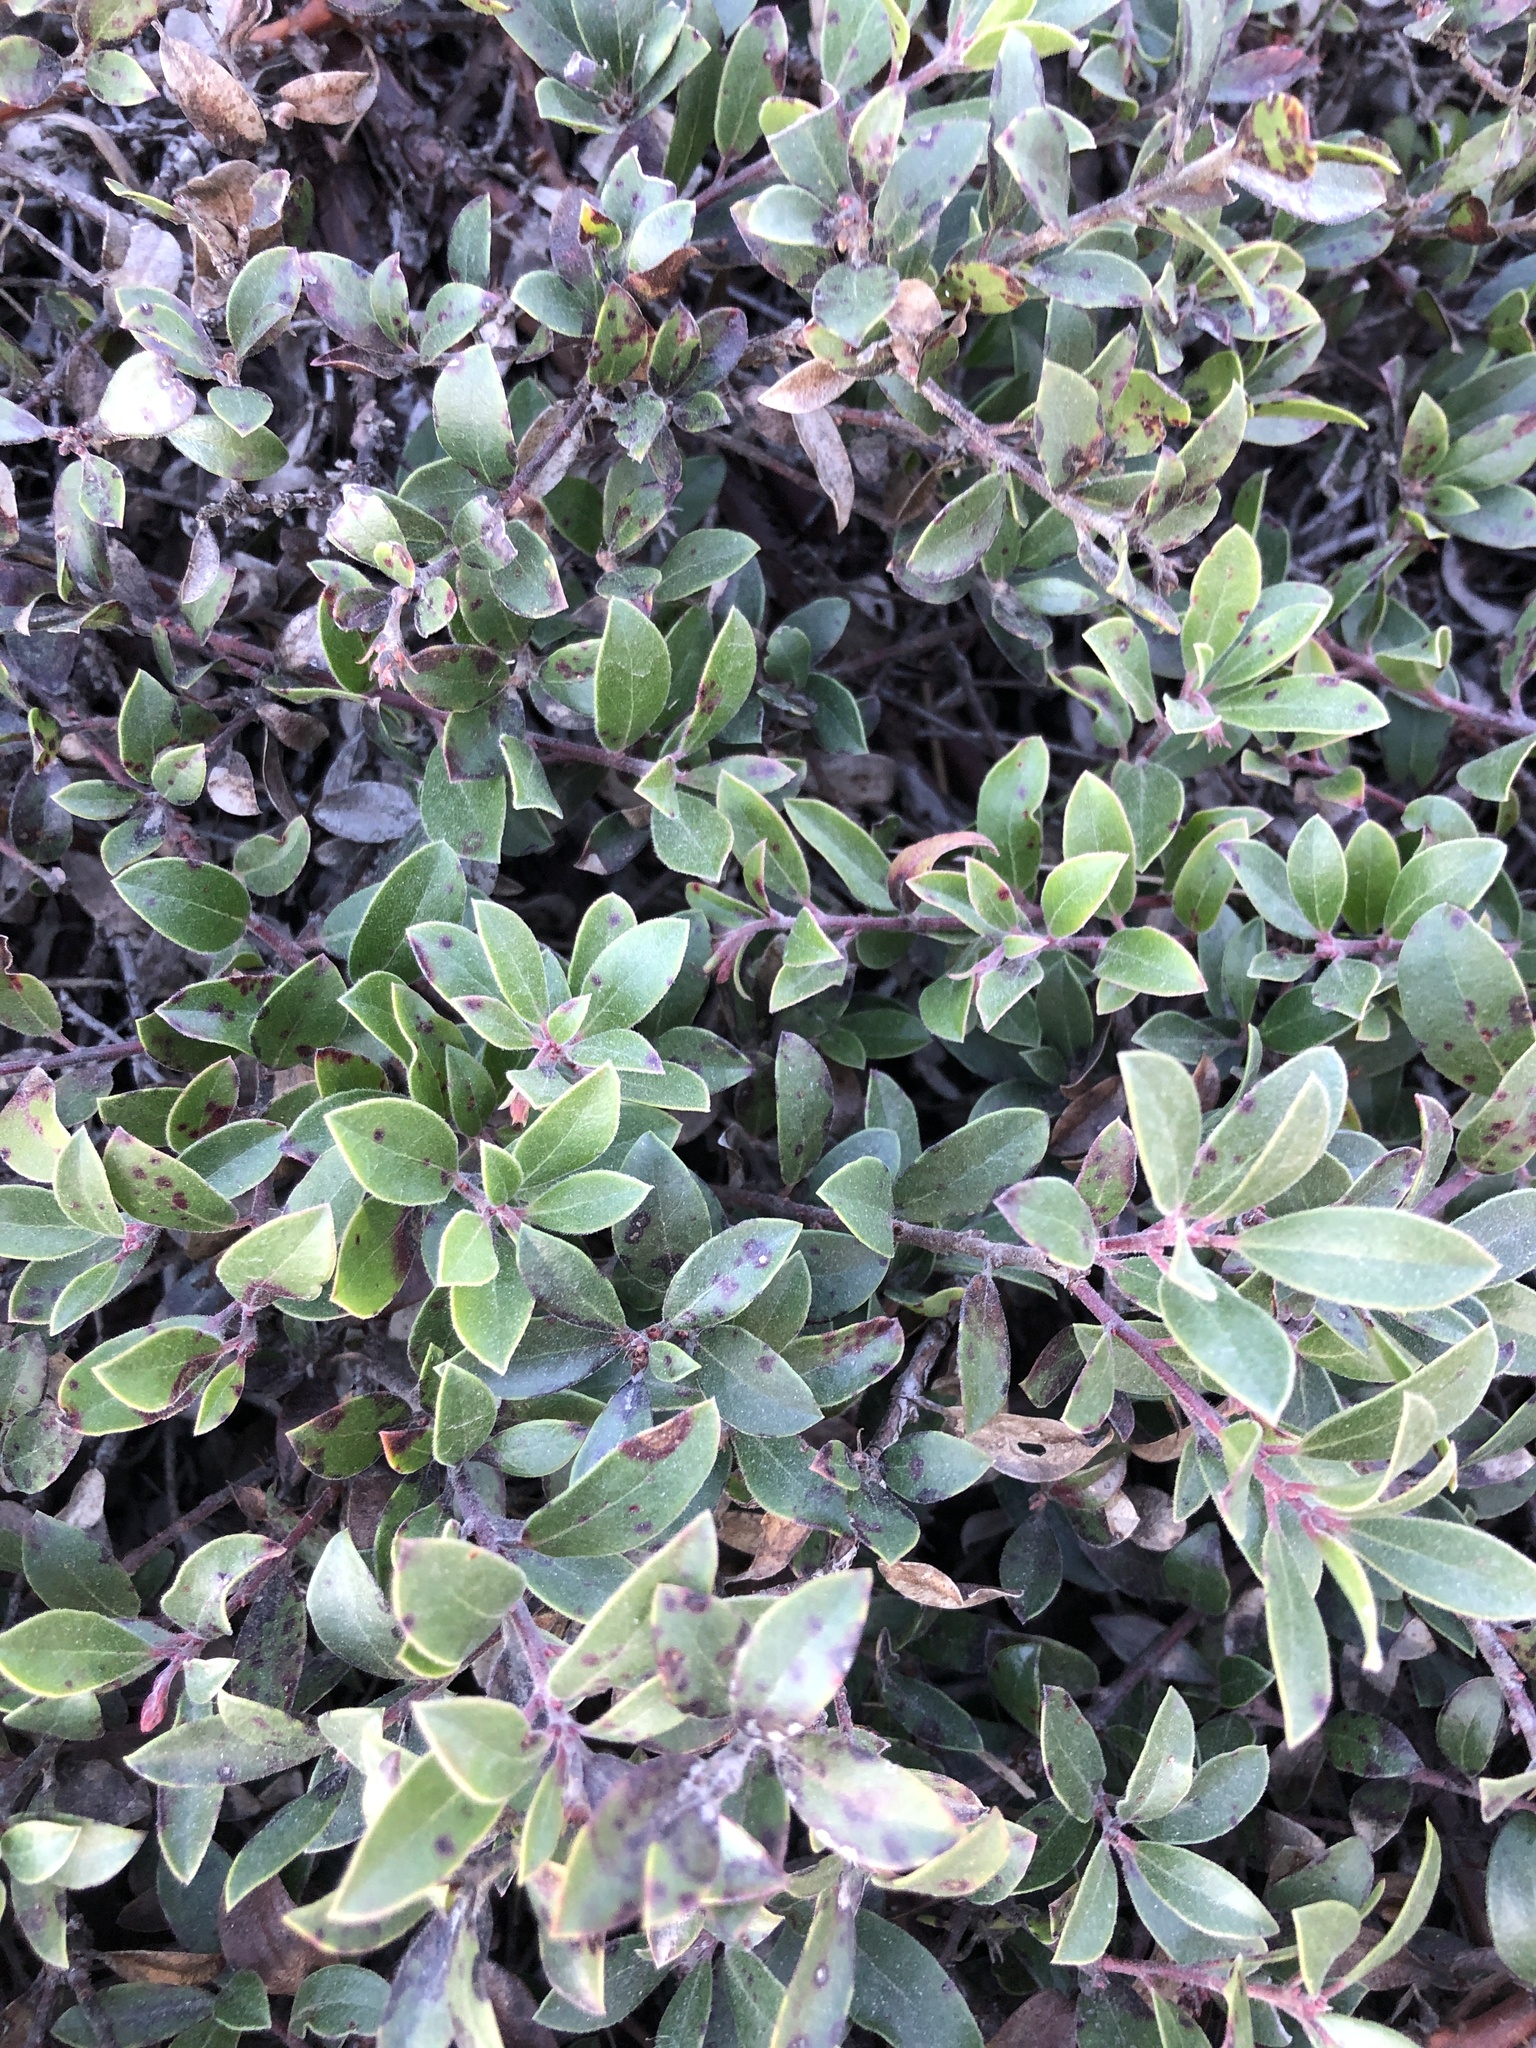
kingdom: Plantae
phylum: Tracheophyta
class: Magnoliopsida
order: Ericales
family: Ericaceae
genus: Arctostaphylos
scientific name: Arctostaphylos uva-ursi
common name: Bearberry
